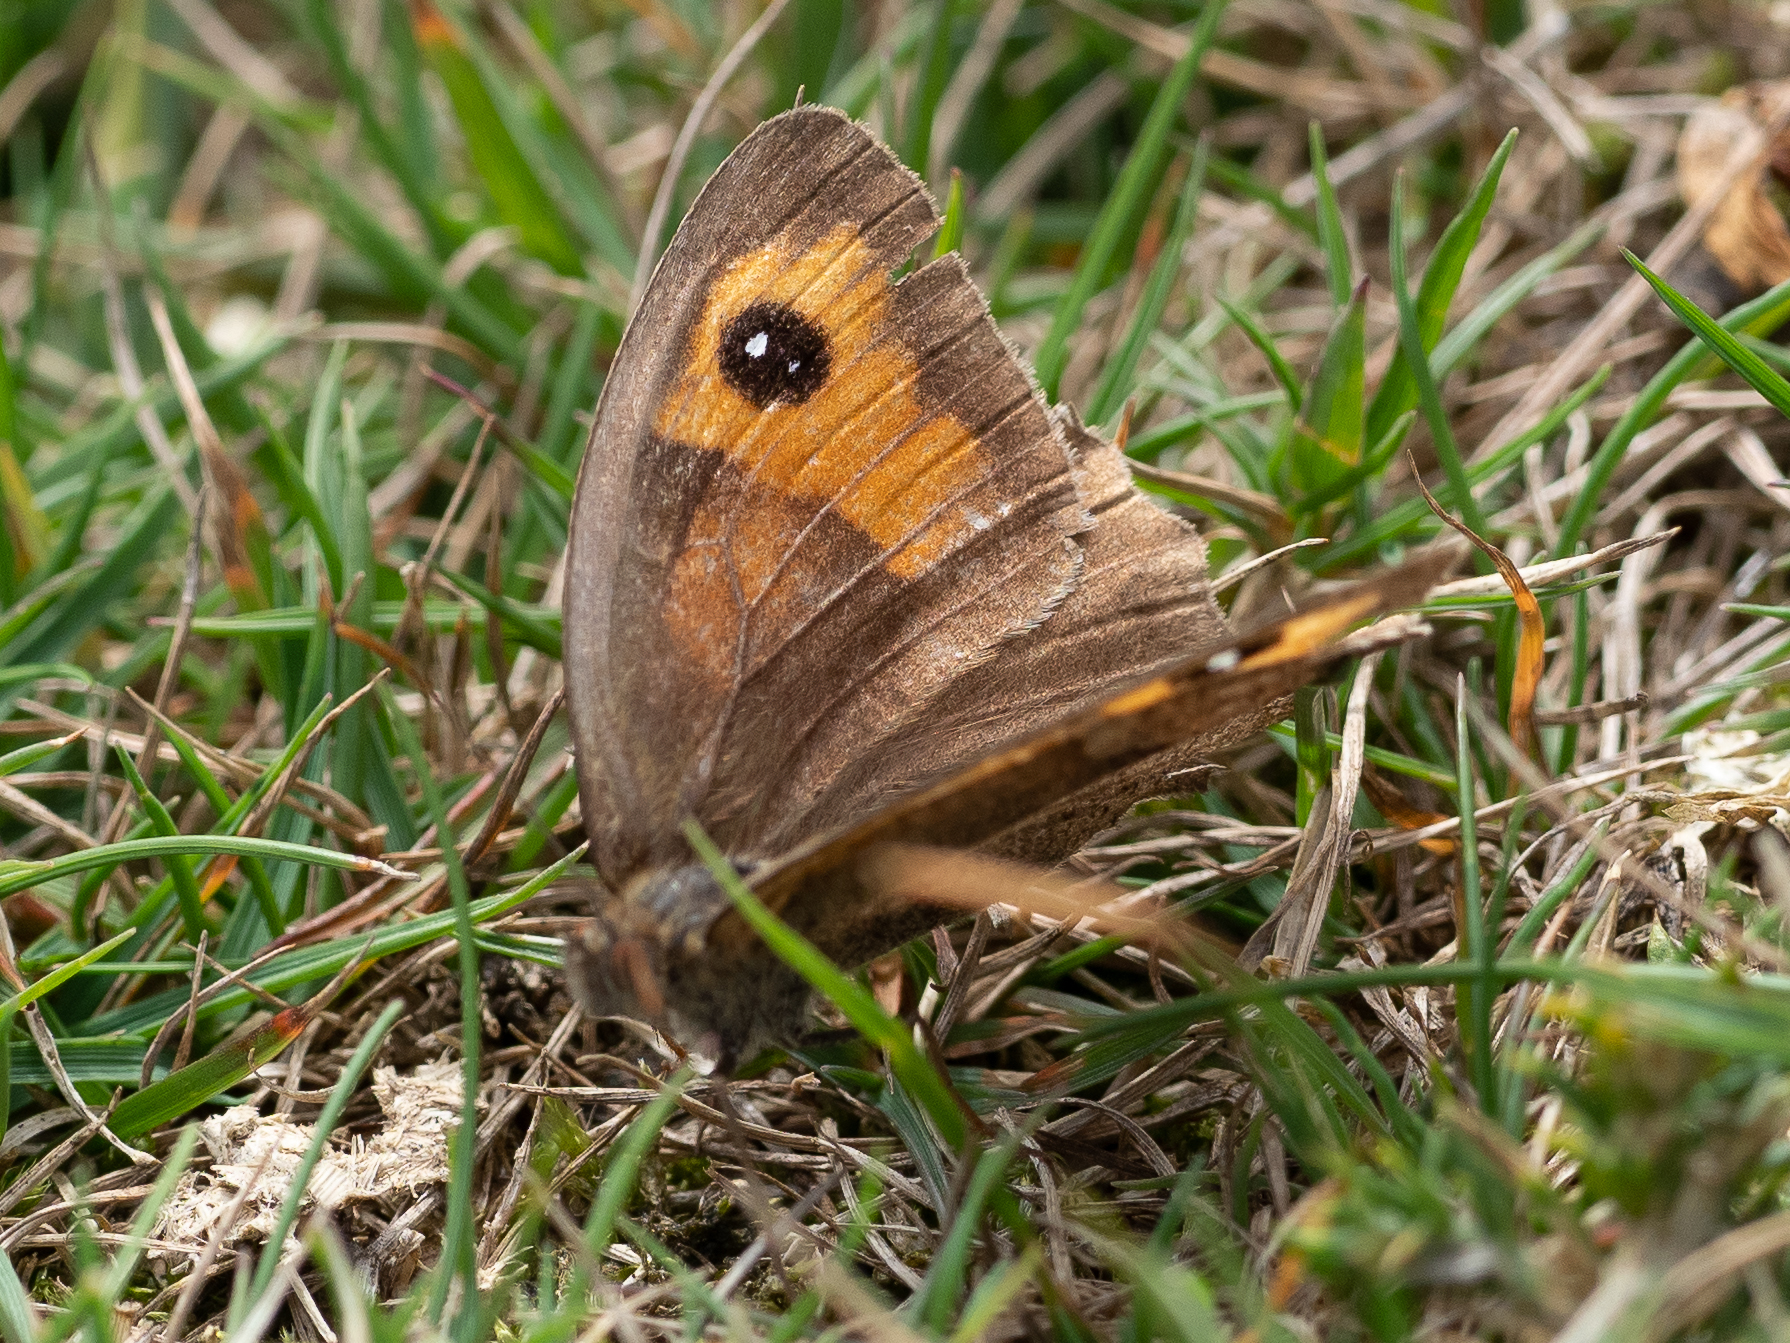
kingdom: Animalia
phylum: Arthropoda
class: Insecta
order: Lepidoptera
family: Nymphalidae
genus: Maniola
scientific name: Maniola jurtina
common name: Meadow brown
